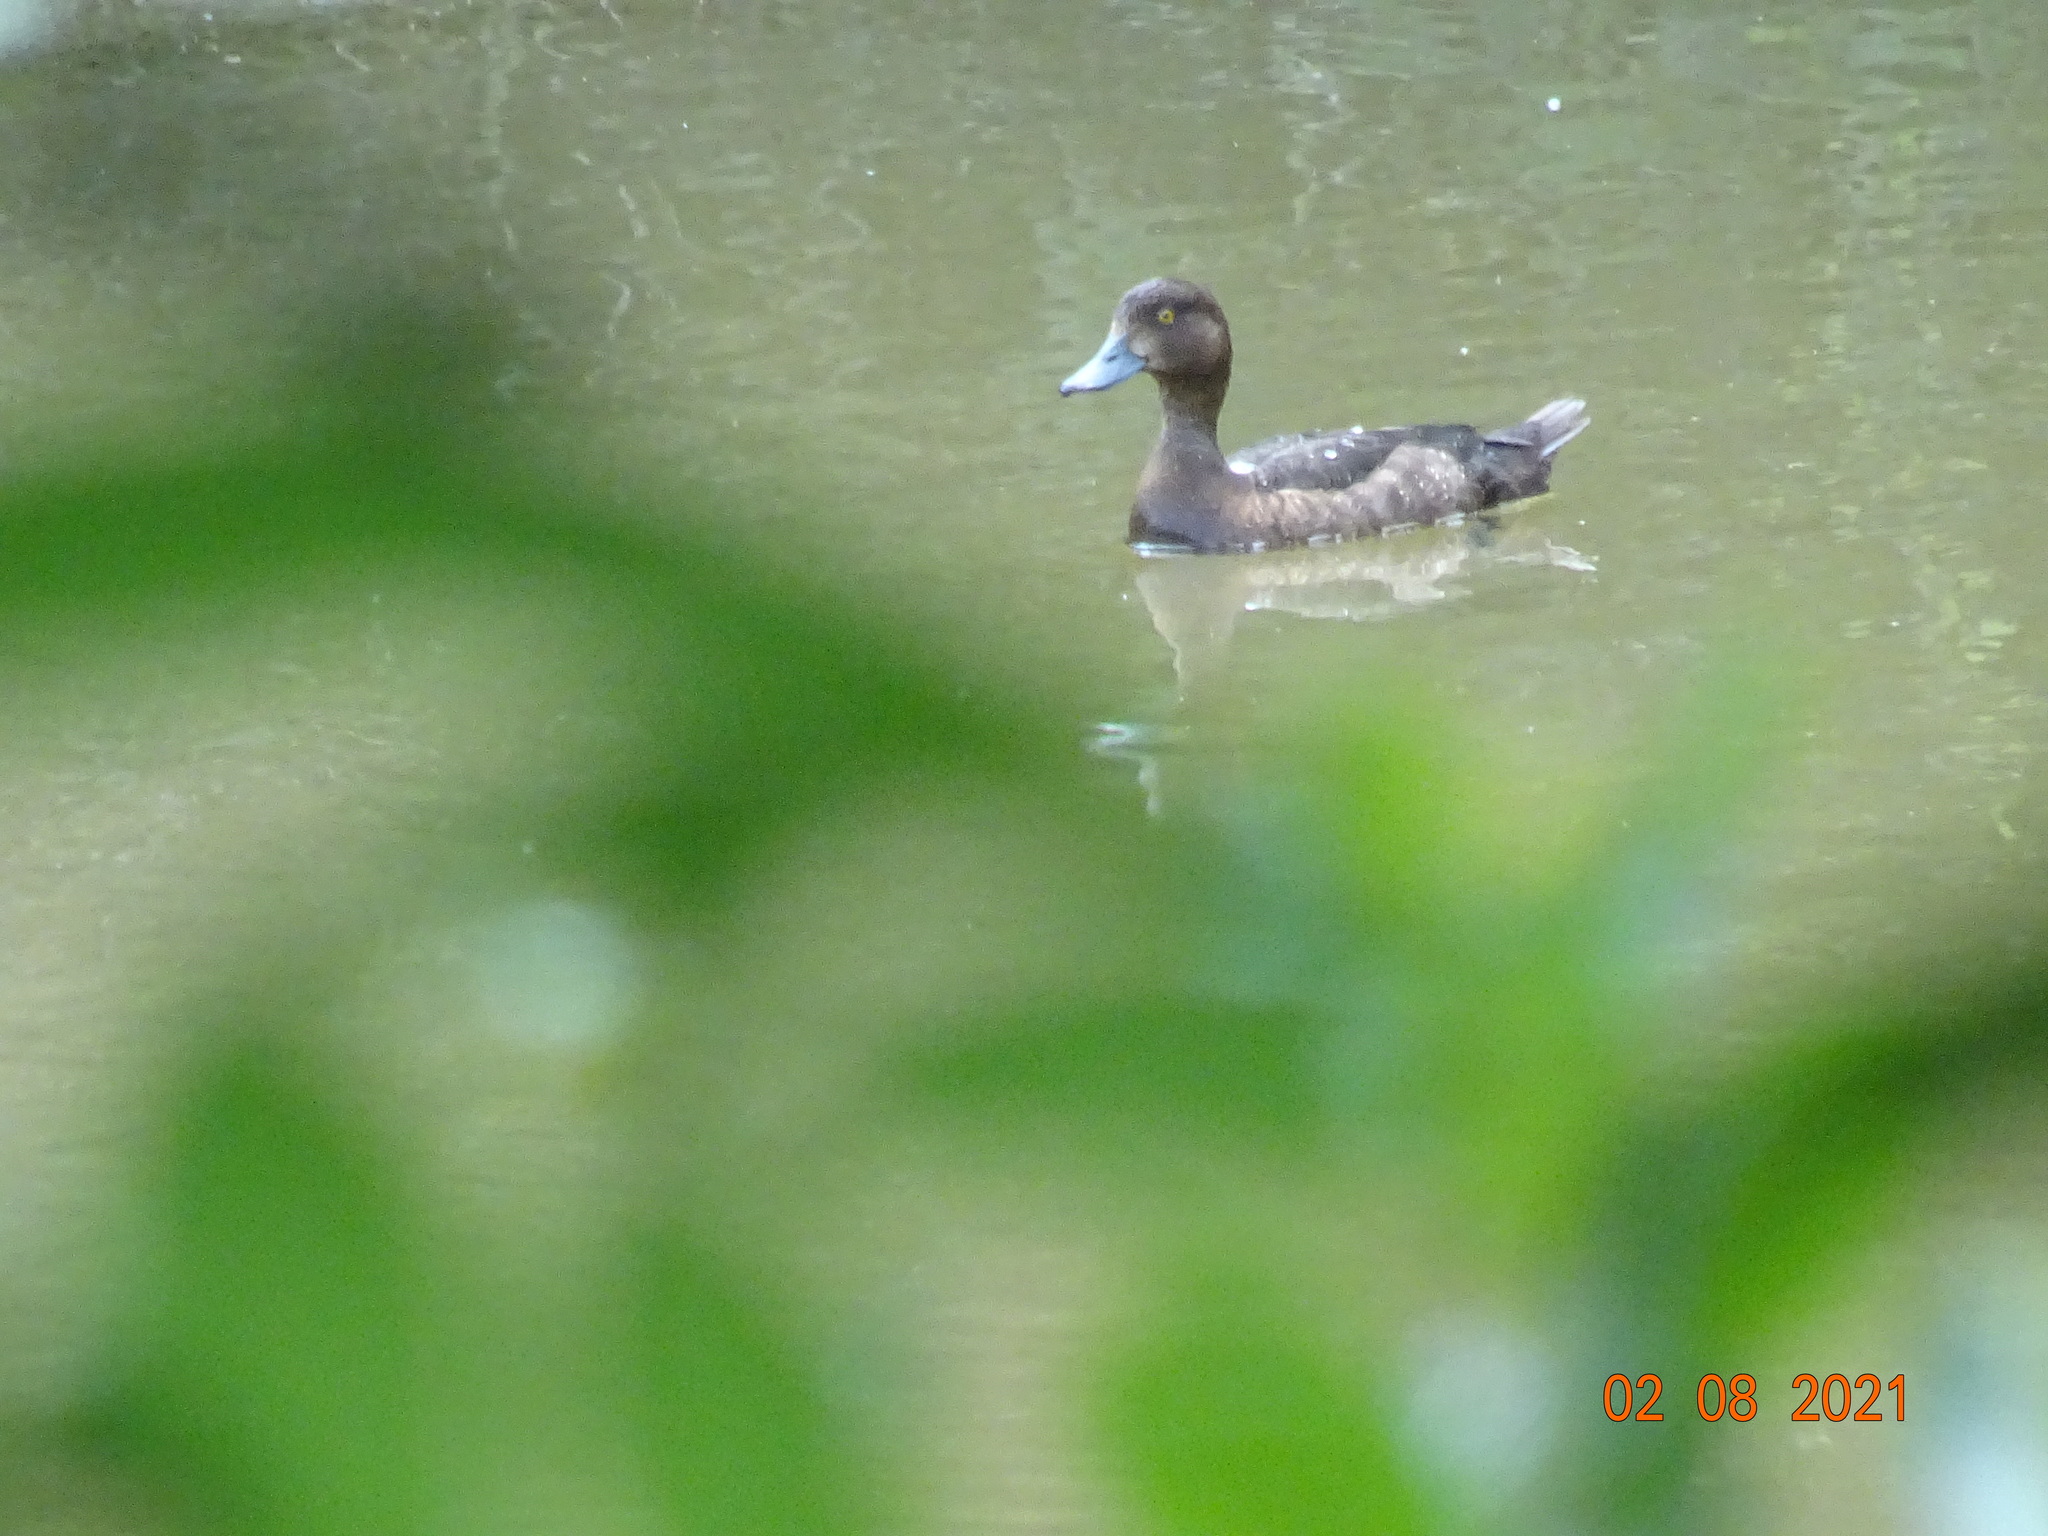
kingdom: Animalia
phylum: Chordata
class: Aves
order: Anseriformes
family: Anatidae
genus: Aythya
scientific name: Aythya fuligula
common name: Tufted duck
